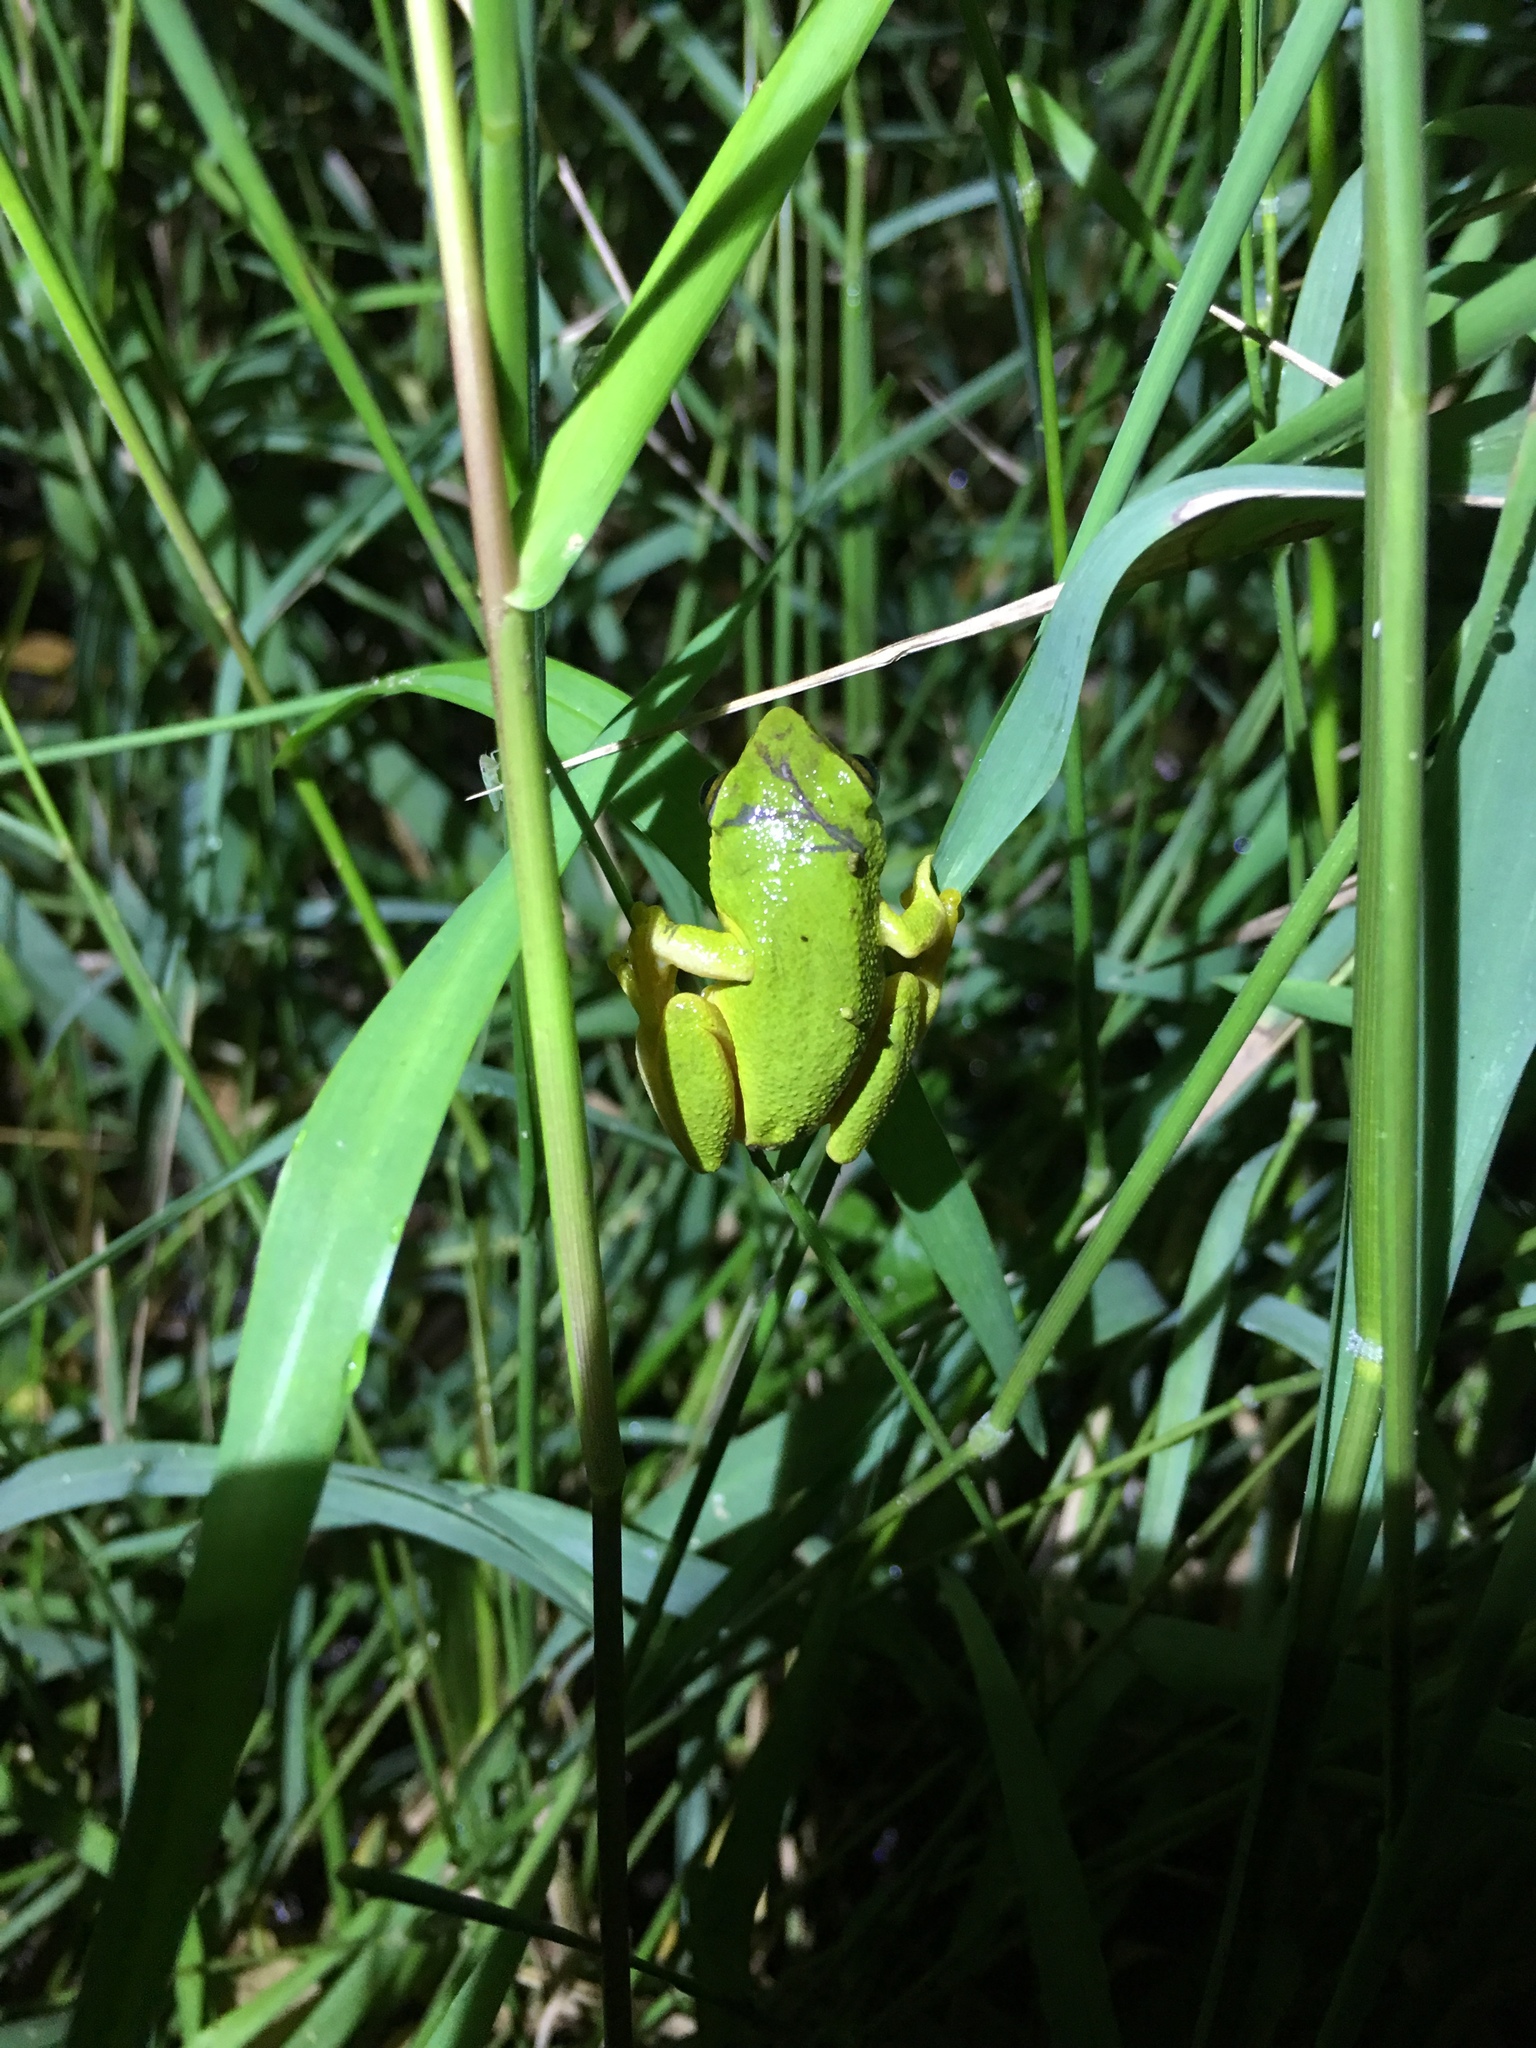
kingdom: Animalia
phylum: Chordata
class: Amphibia
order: Anura
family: Hyperoliidae
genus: Hyperolius
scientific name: Hyperolius tuberilinguis
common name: Tinker reed frog
